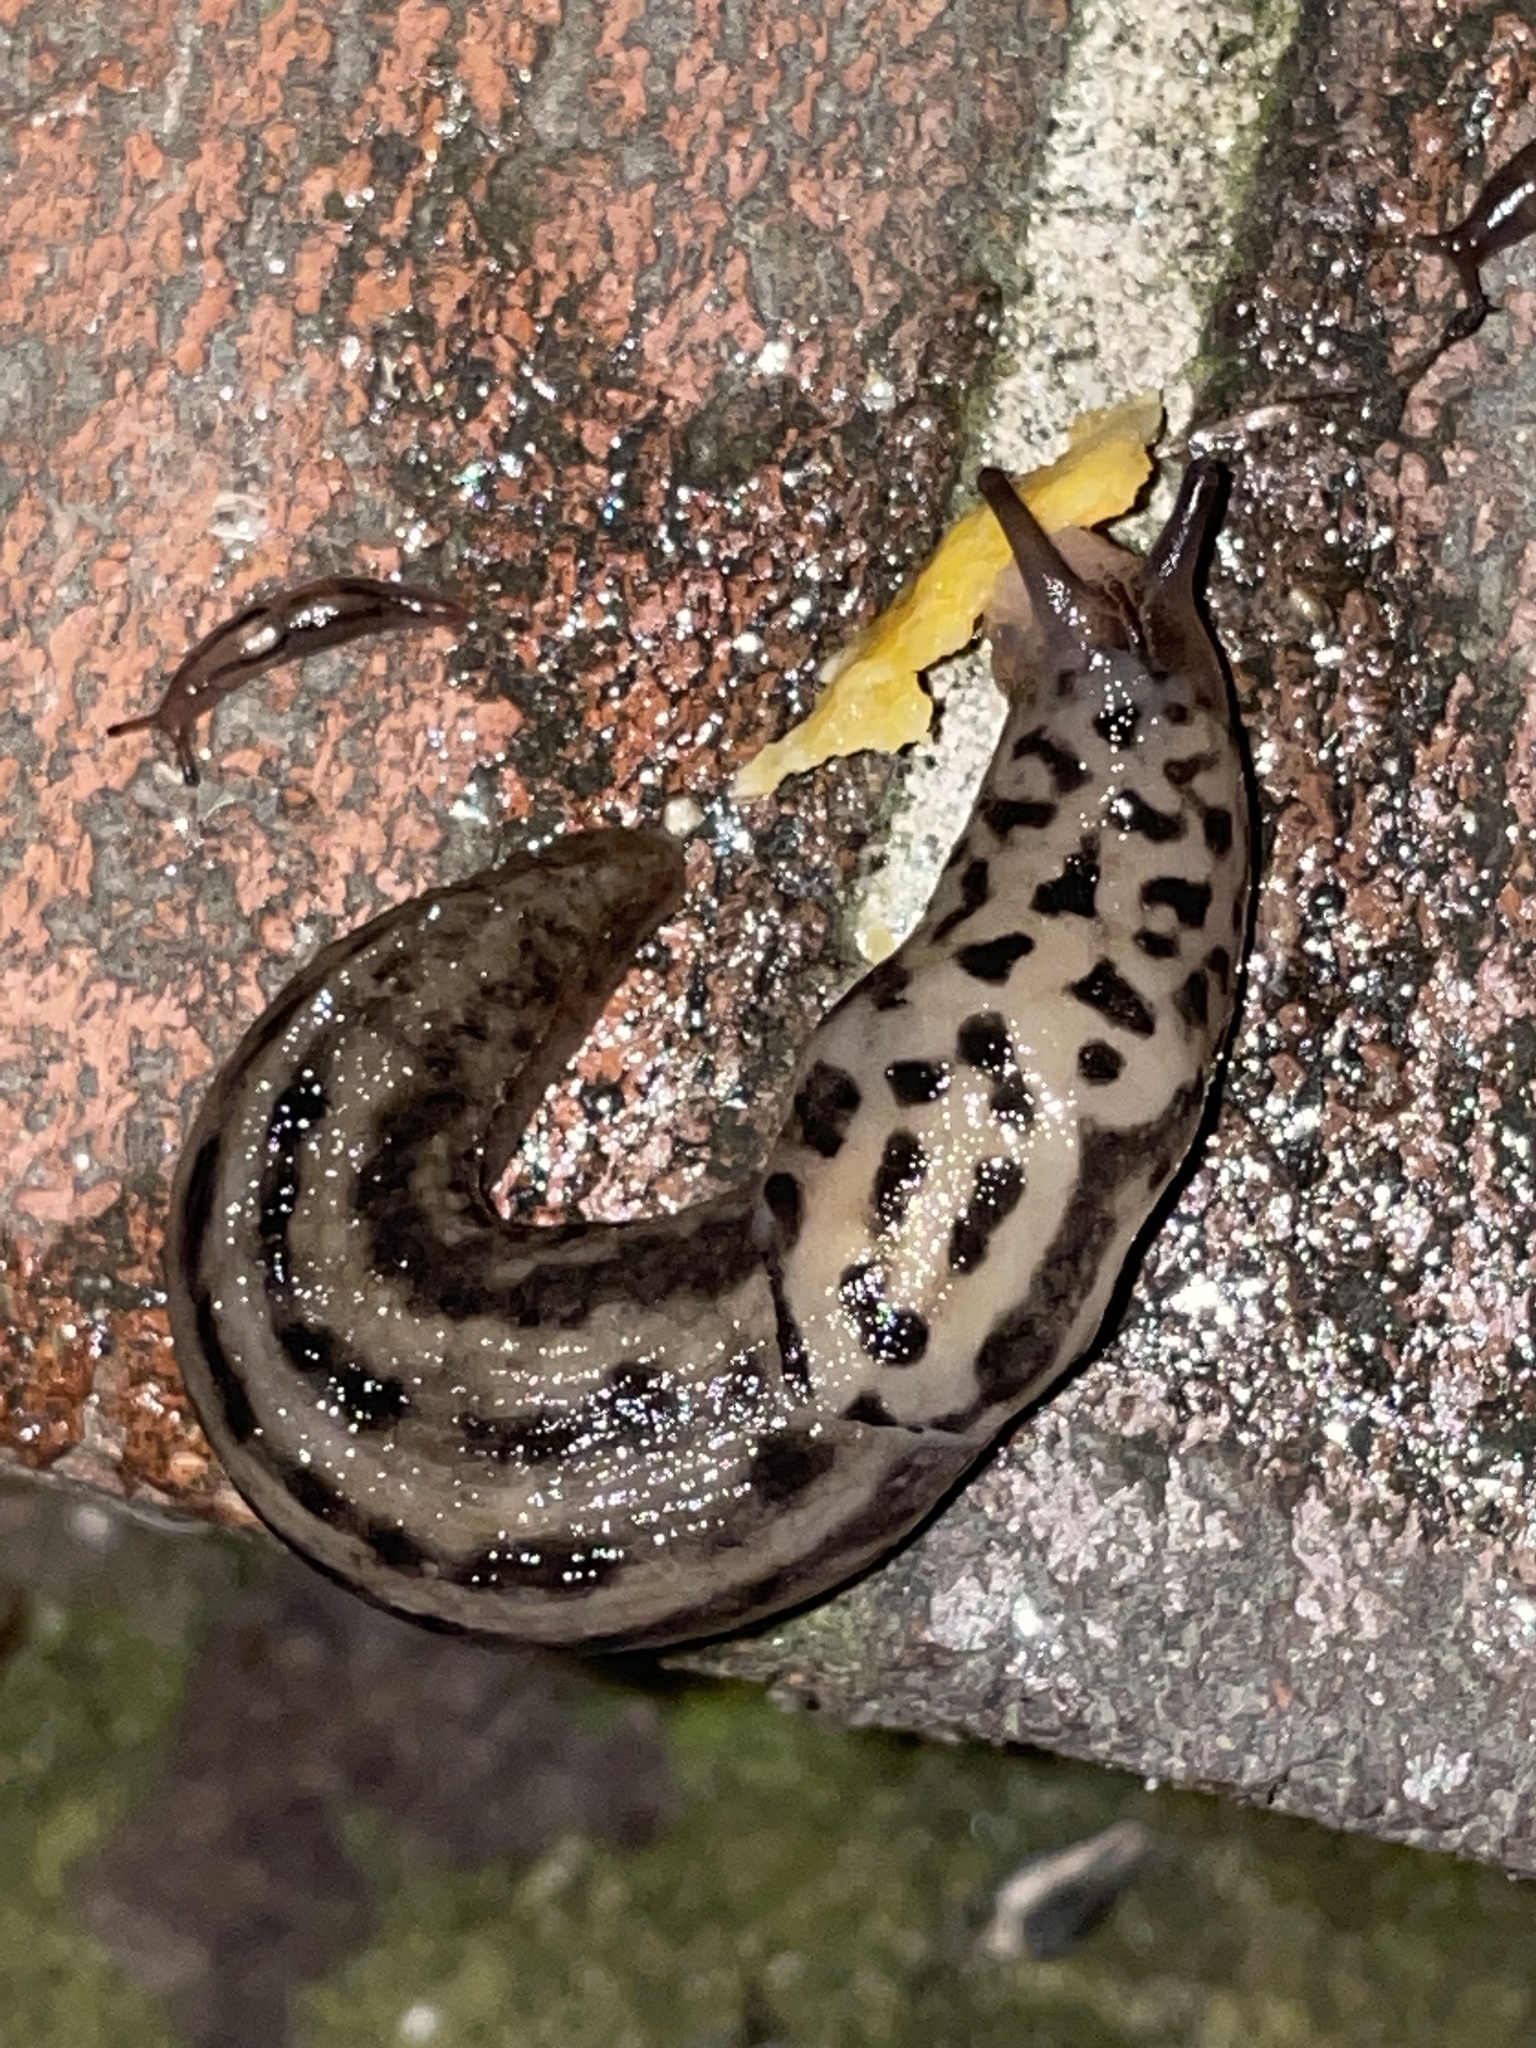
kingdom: Animalia
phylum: Mollusca
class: Gastropoda
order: Stylommatophora
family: Limacidae
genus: Limax
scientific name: Limax maximus
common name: Great grey slug
